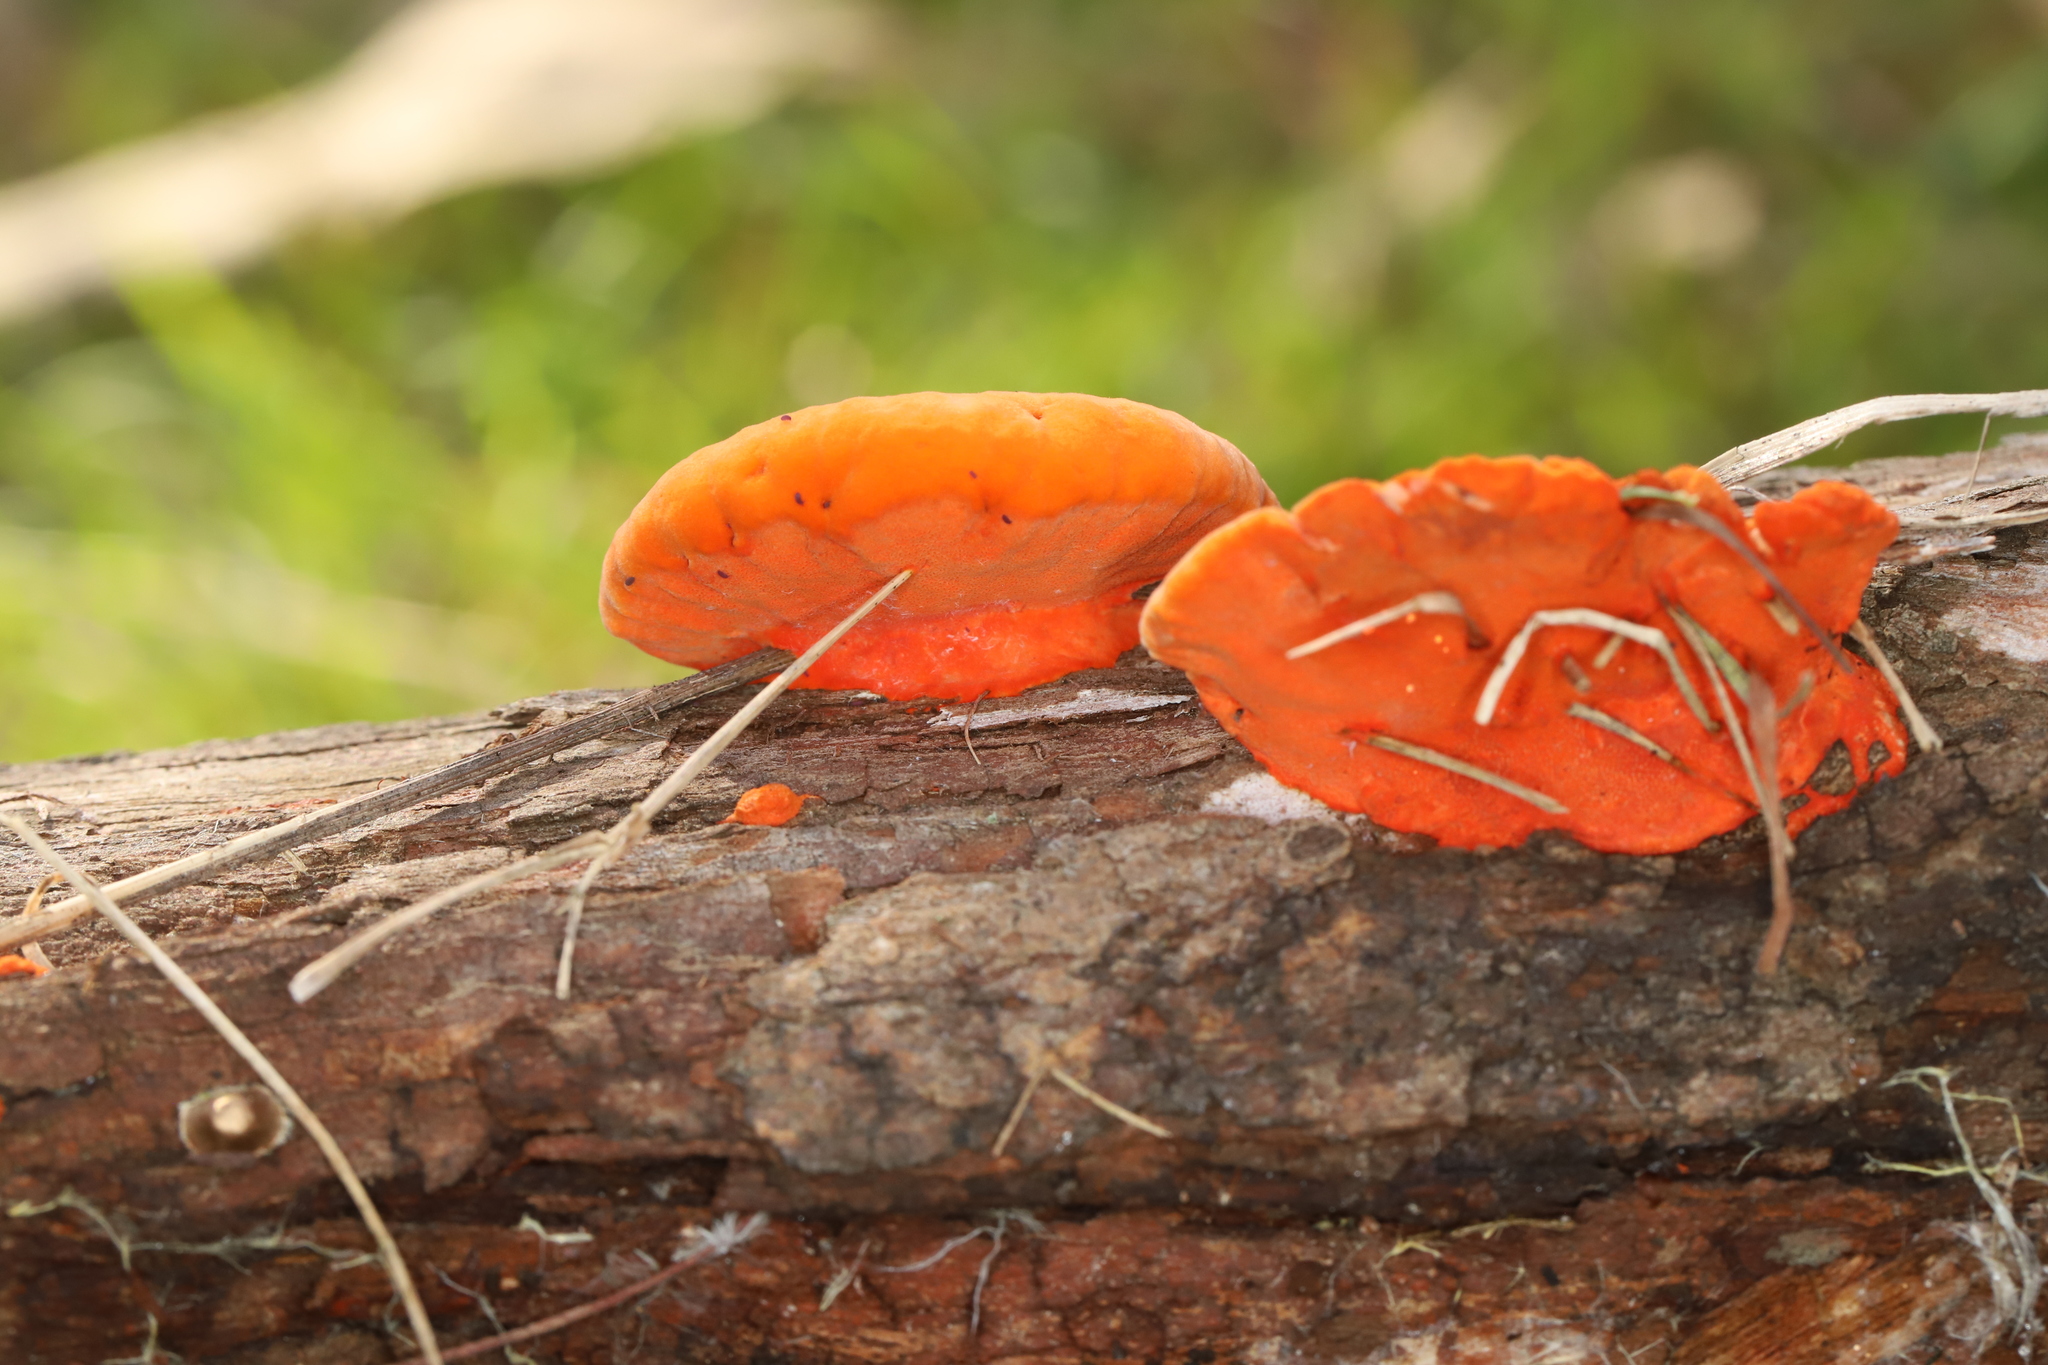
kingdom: Fungi
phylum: Basidiomycota
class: Agaricomycetes
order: Polyporales
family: Polyporaceae
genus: Trametes
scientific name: Trametes coccinea
